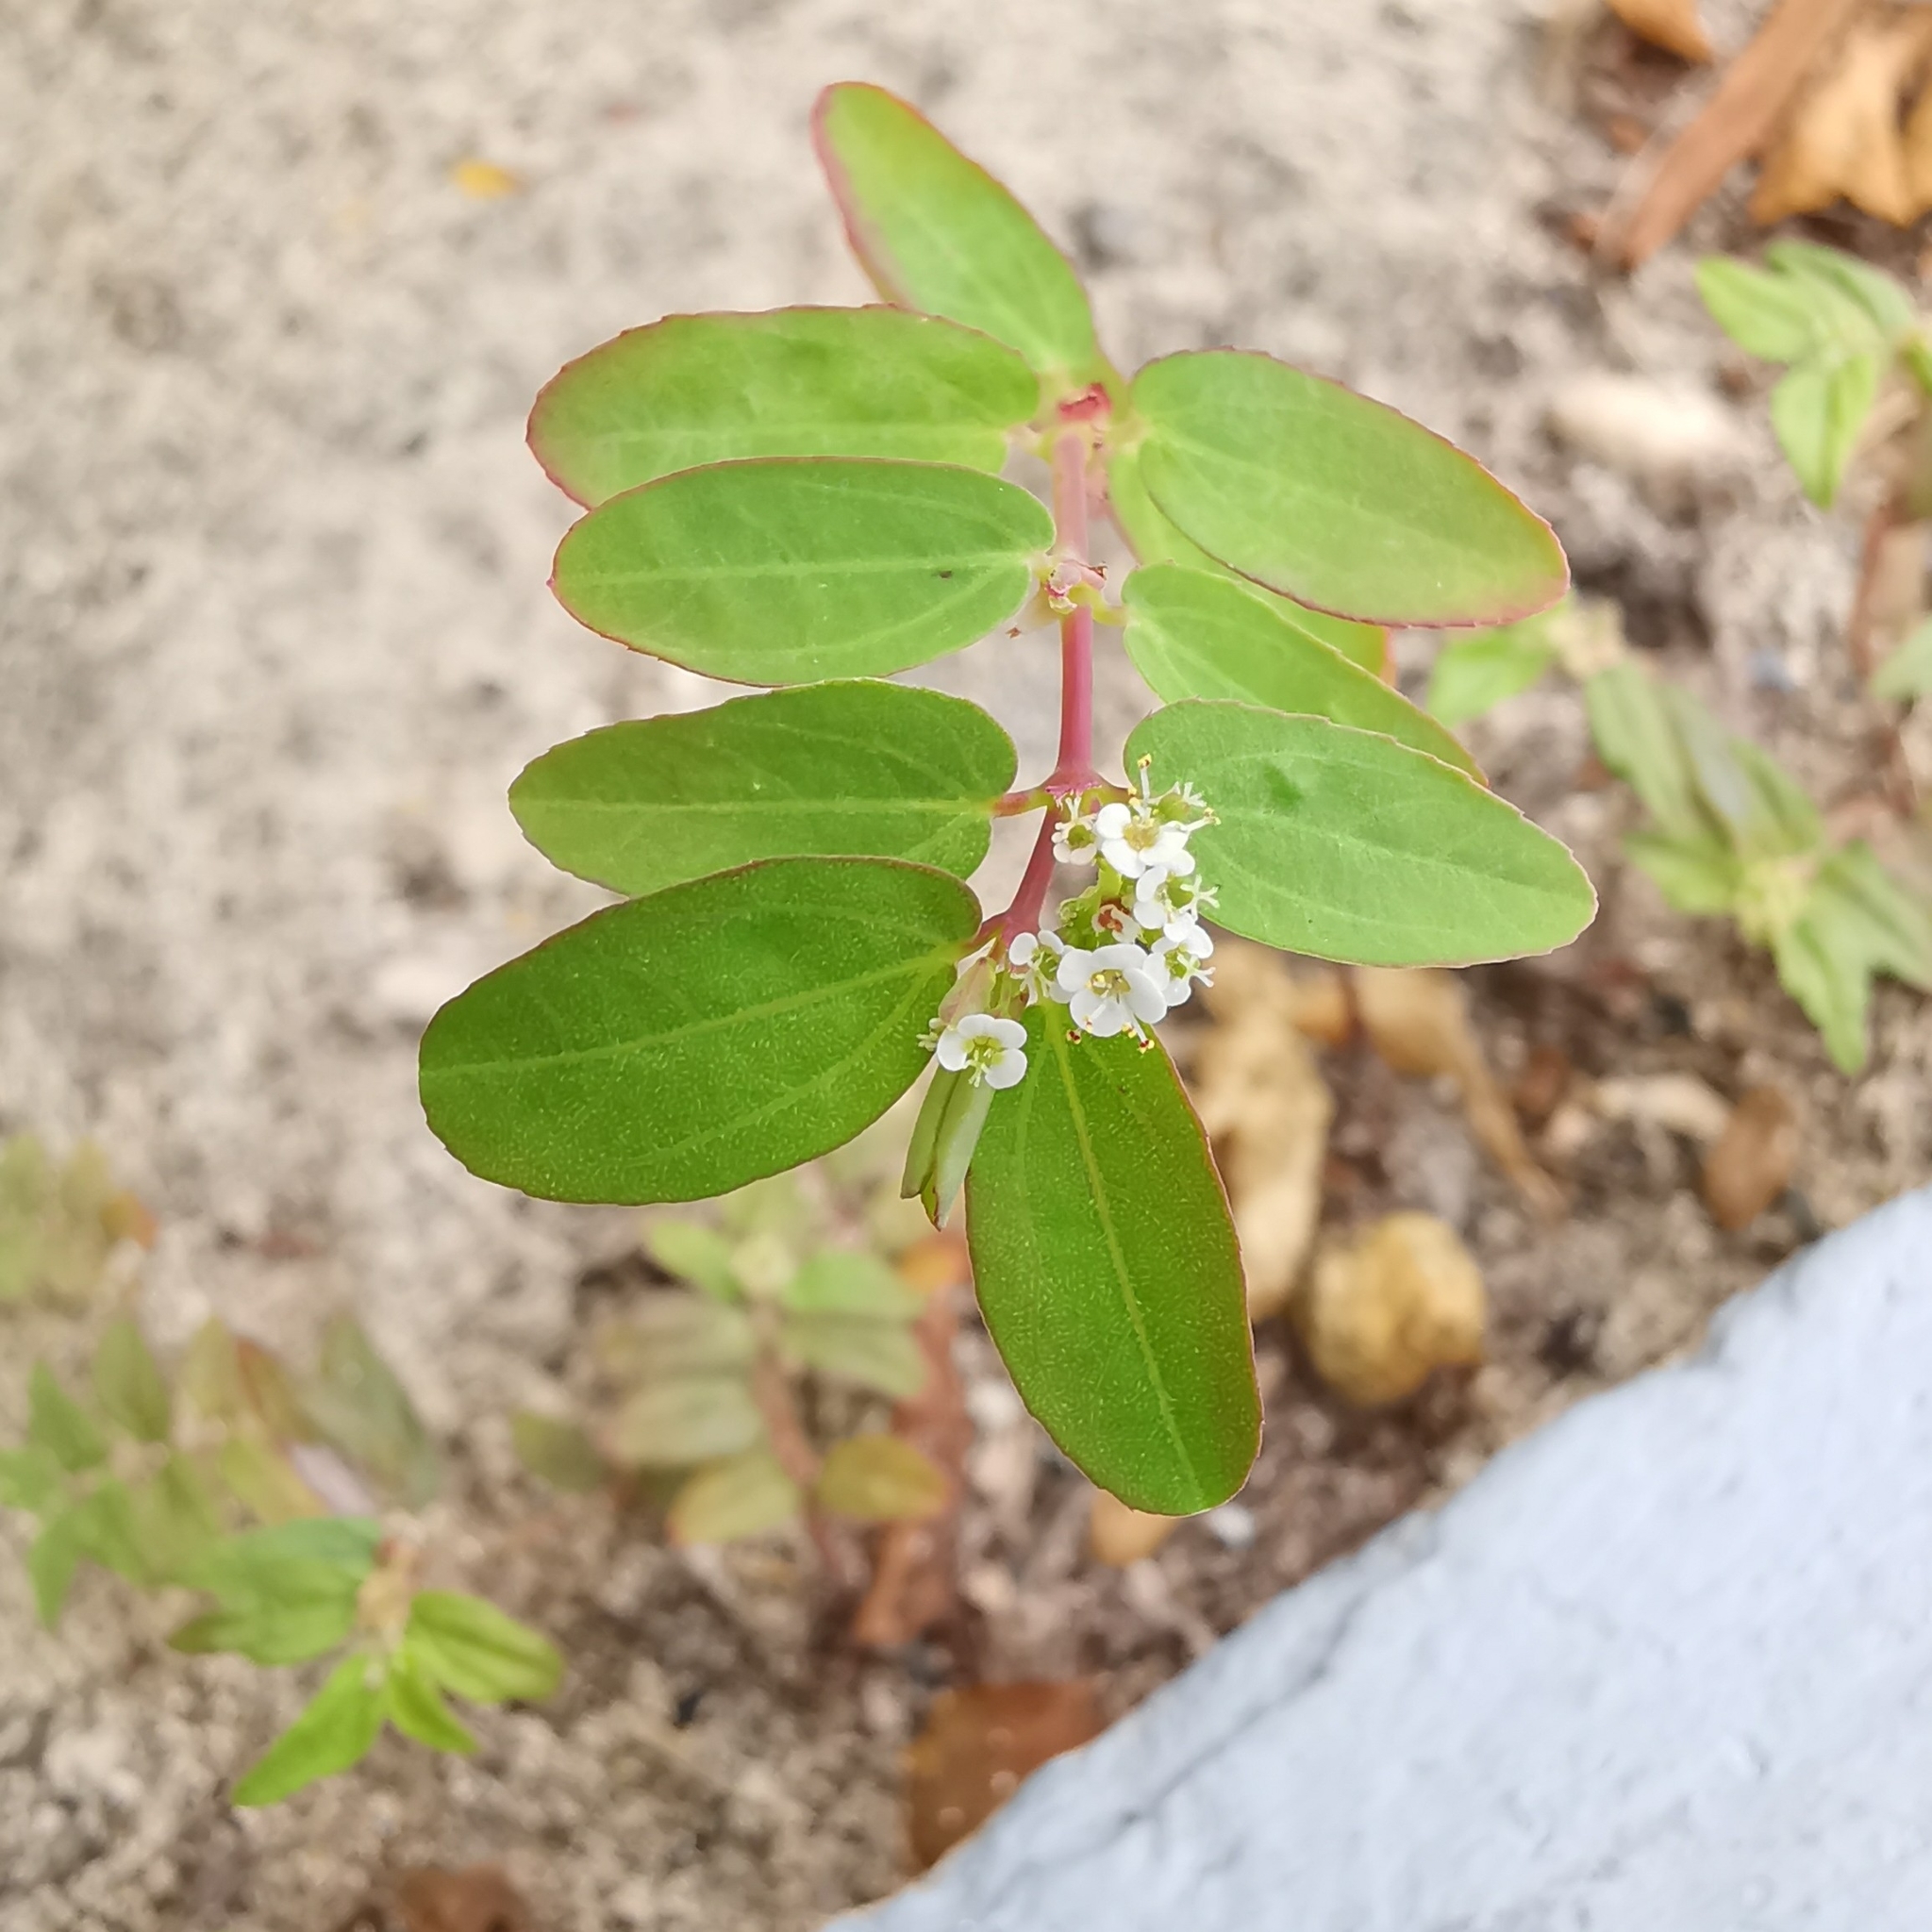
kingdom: Plantae
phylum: Tracheophyta
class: Magnoliopsida
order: Malpighiales
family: Euphorbiaceae
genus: Euphorbia
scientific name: Euphorbia hypericifolia
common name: Graceful sandmat
